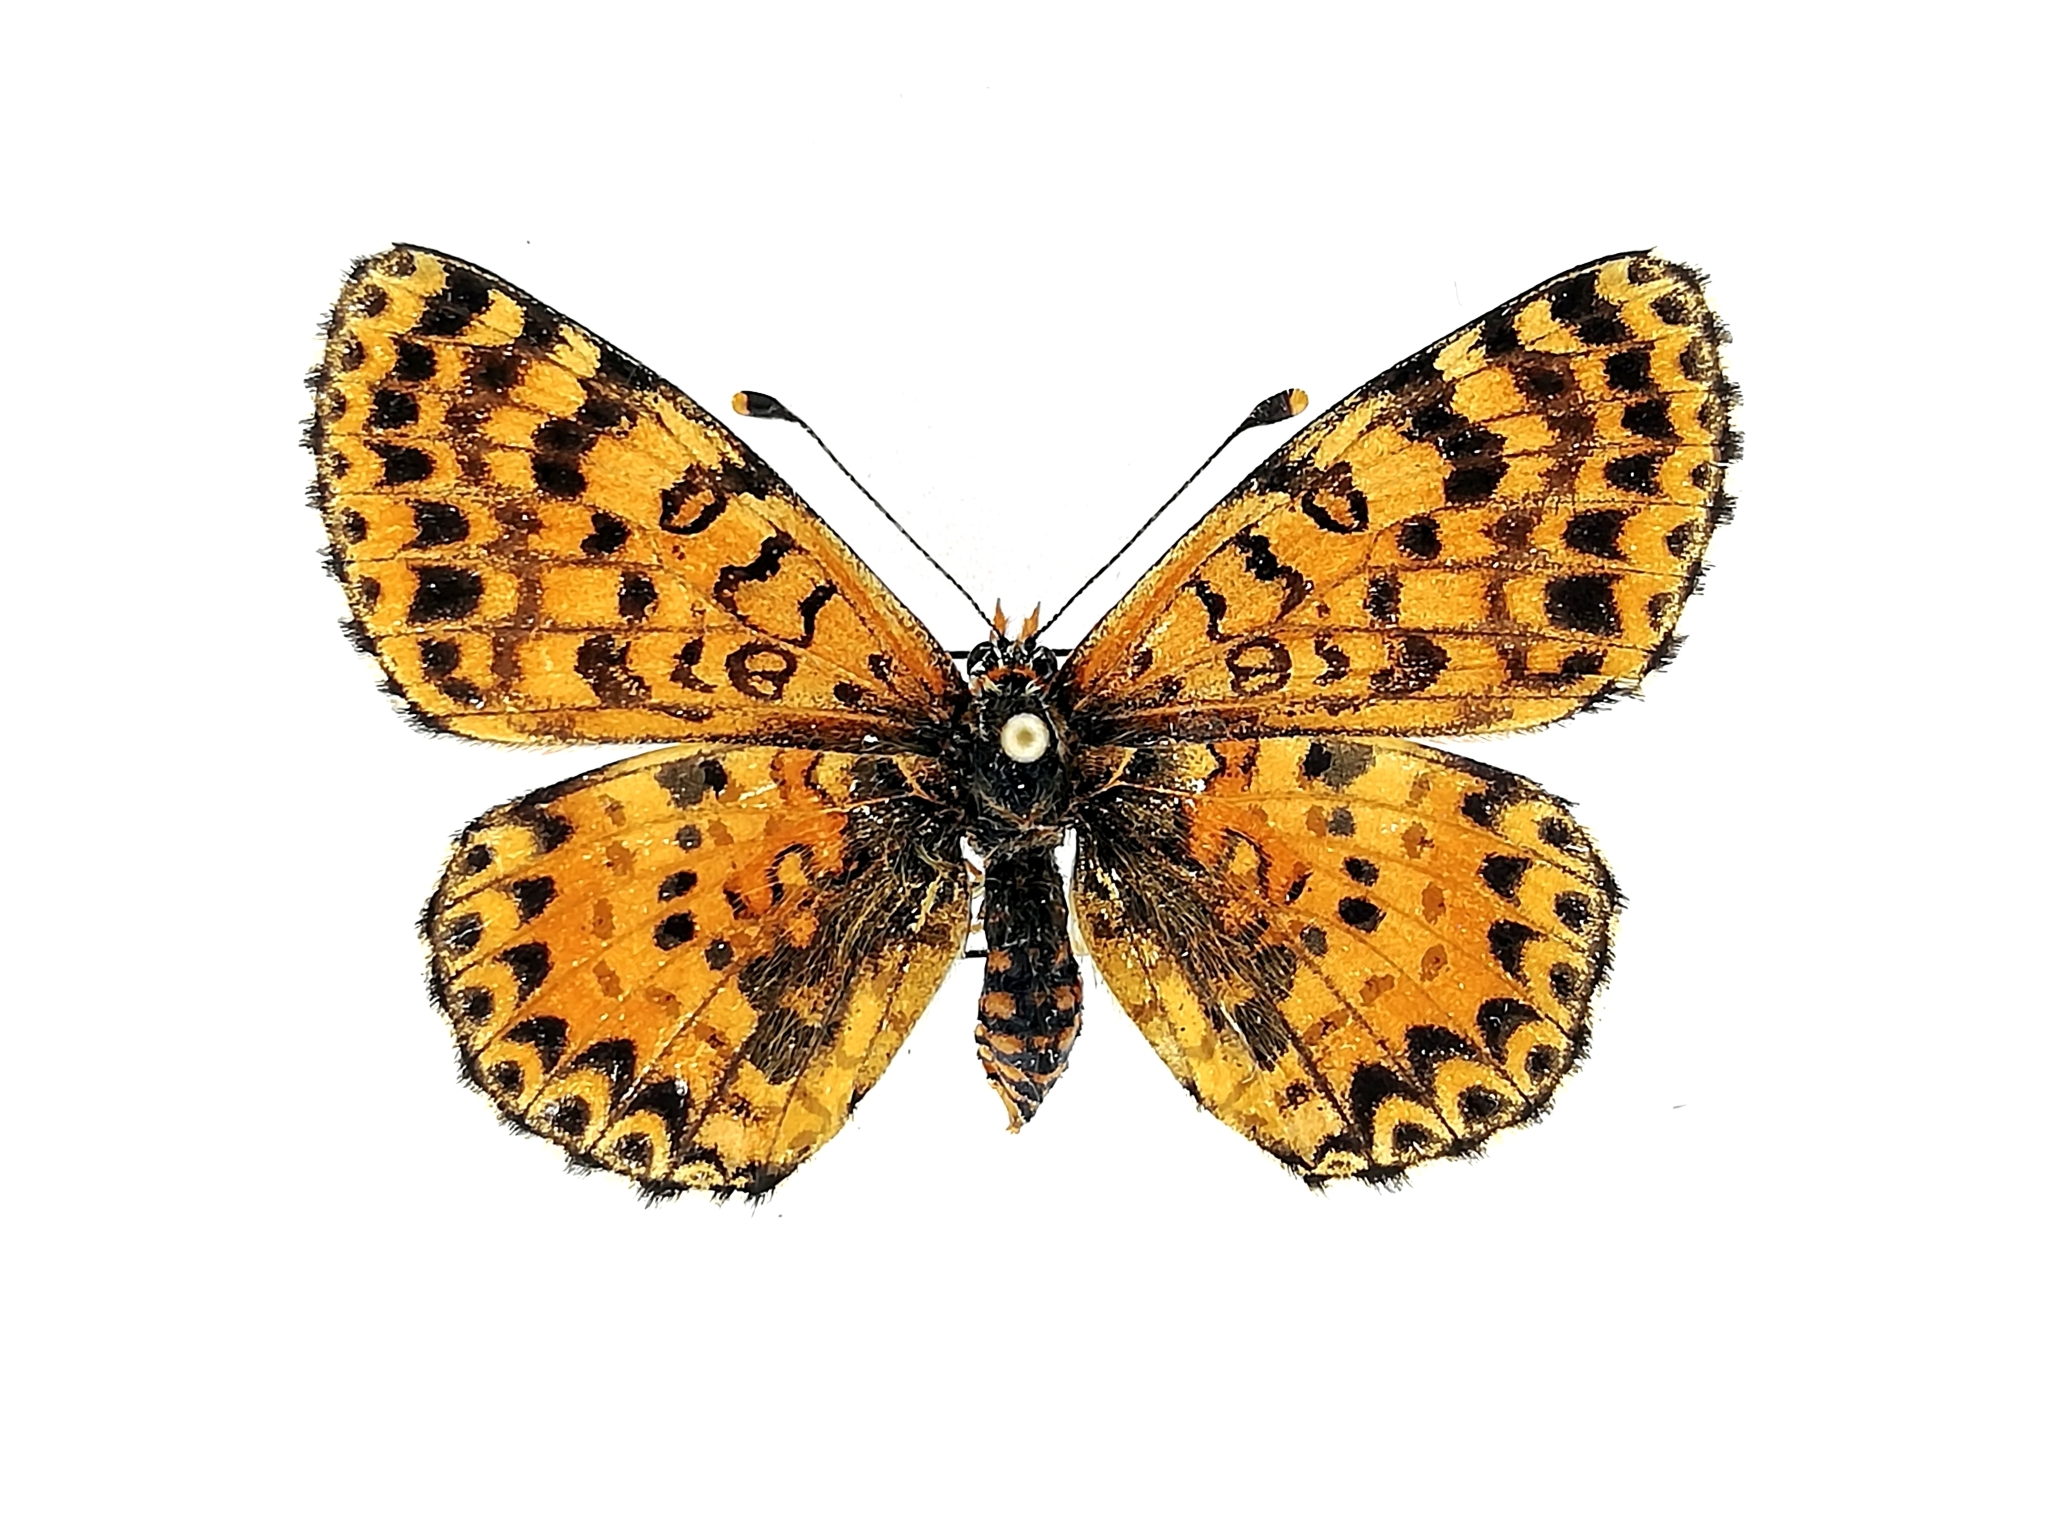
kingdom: Animalia
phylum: Arthropoda
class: Insecta
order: Lepidoptera
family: Nymphalidae
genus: Melitaea
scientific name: Melitaea didyma
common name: Spotted fritillary
